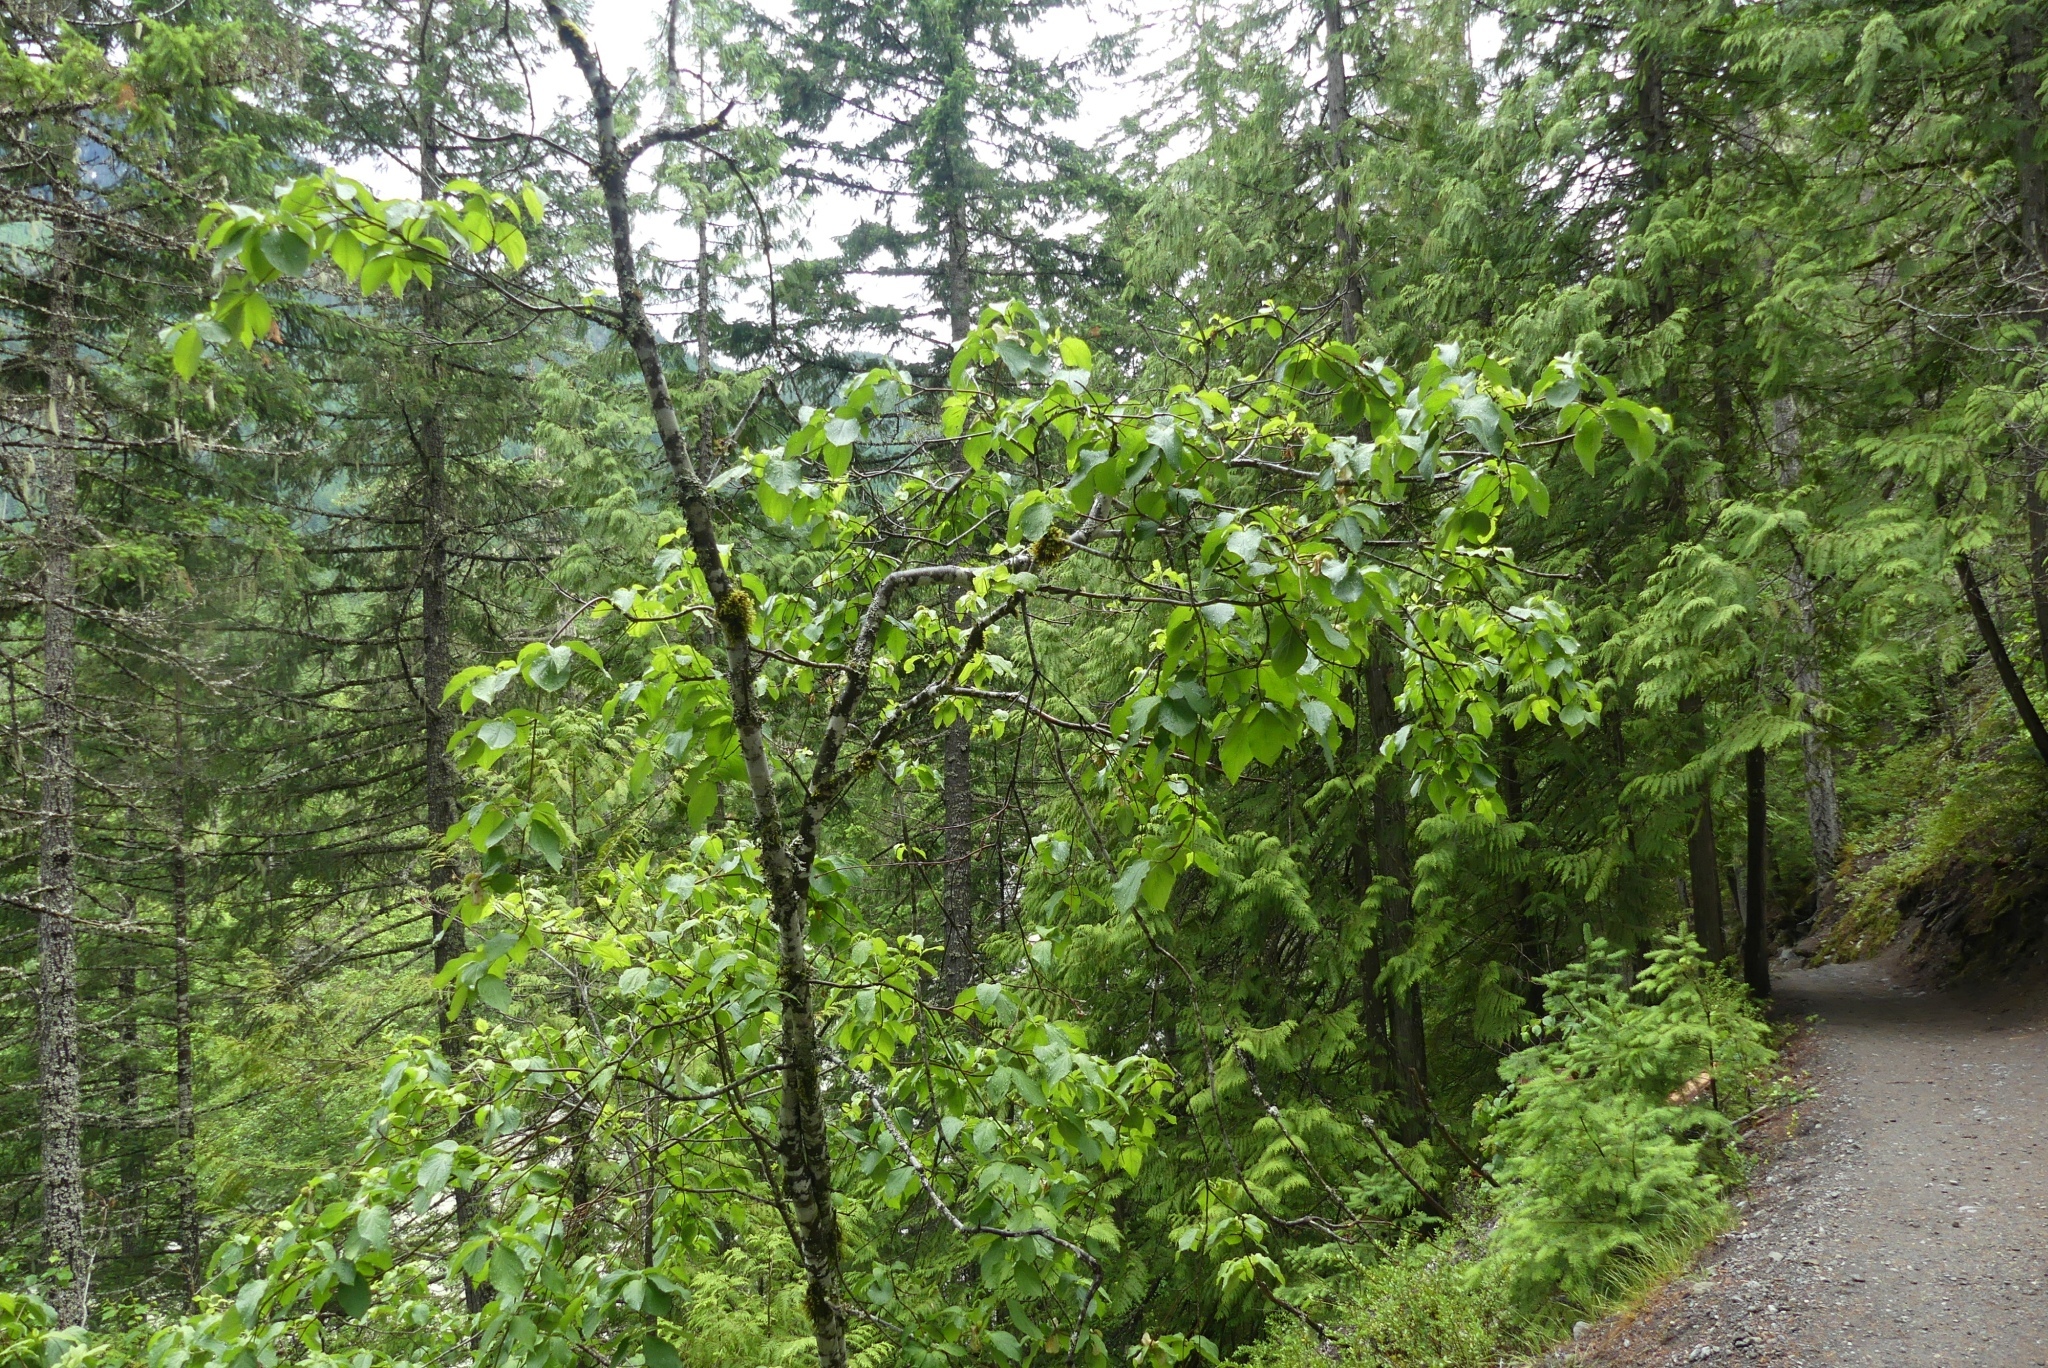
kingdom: Plantae
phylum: Tracheophyta
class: Magnoliopsida
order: Cornales
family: Cornaceae
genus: Cornus
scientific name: Cornus nuttallii
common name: Pacific dogwood
